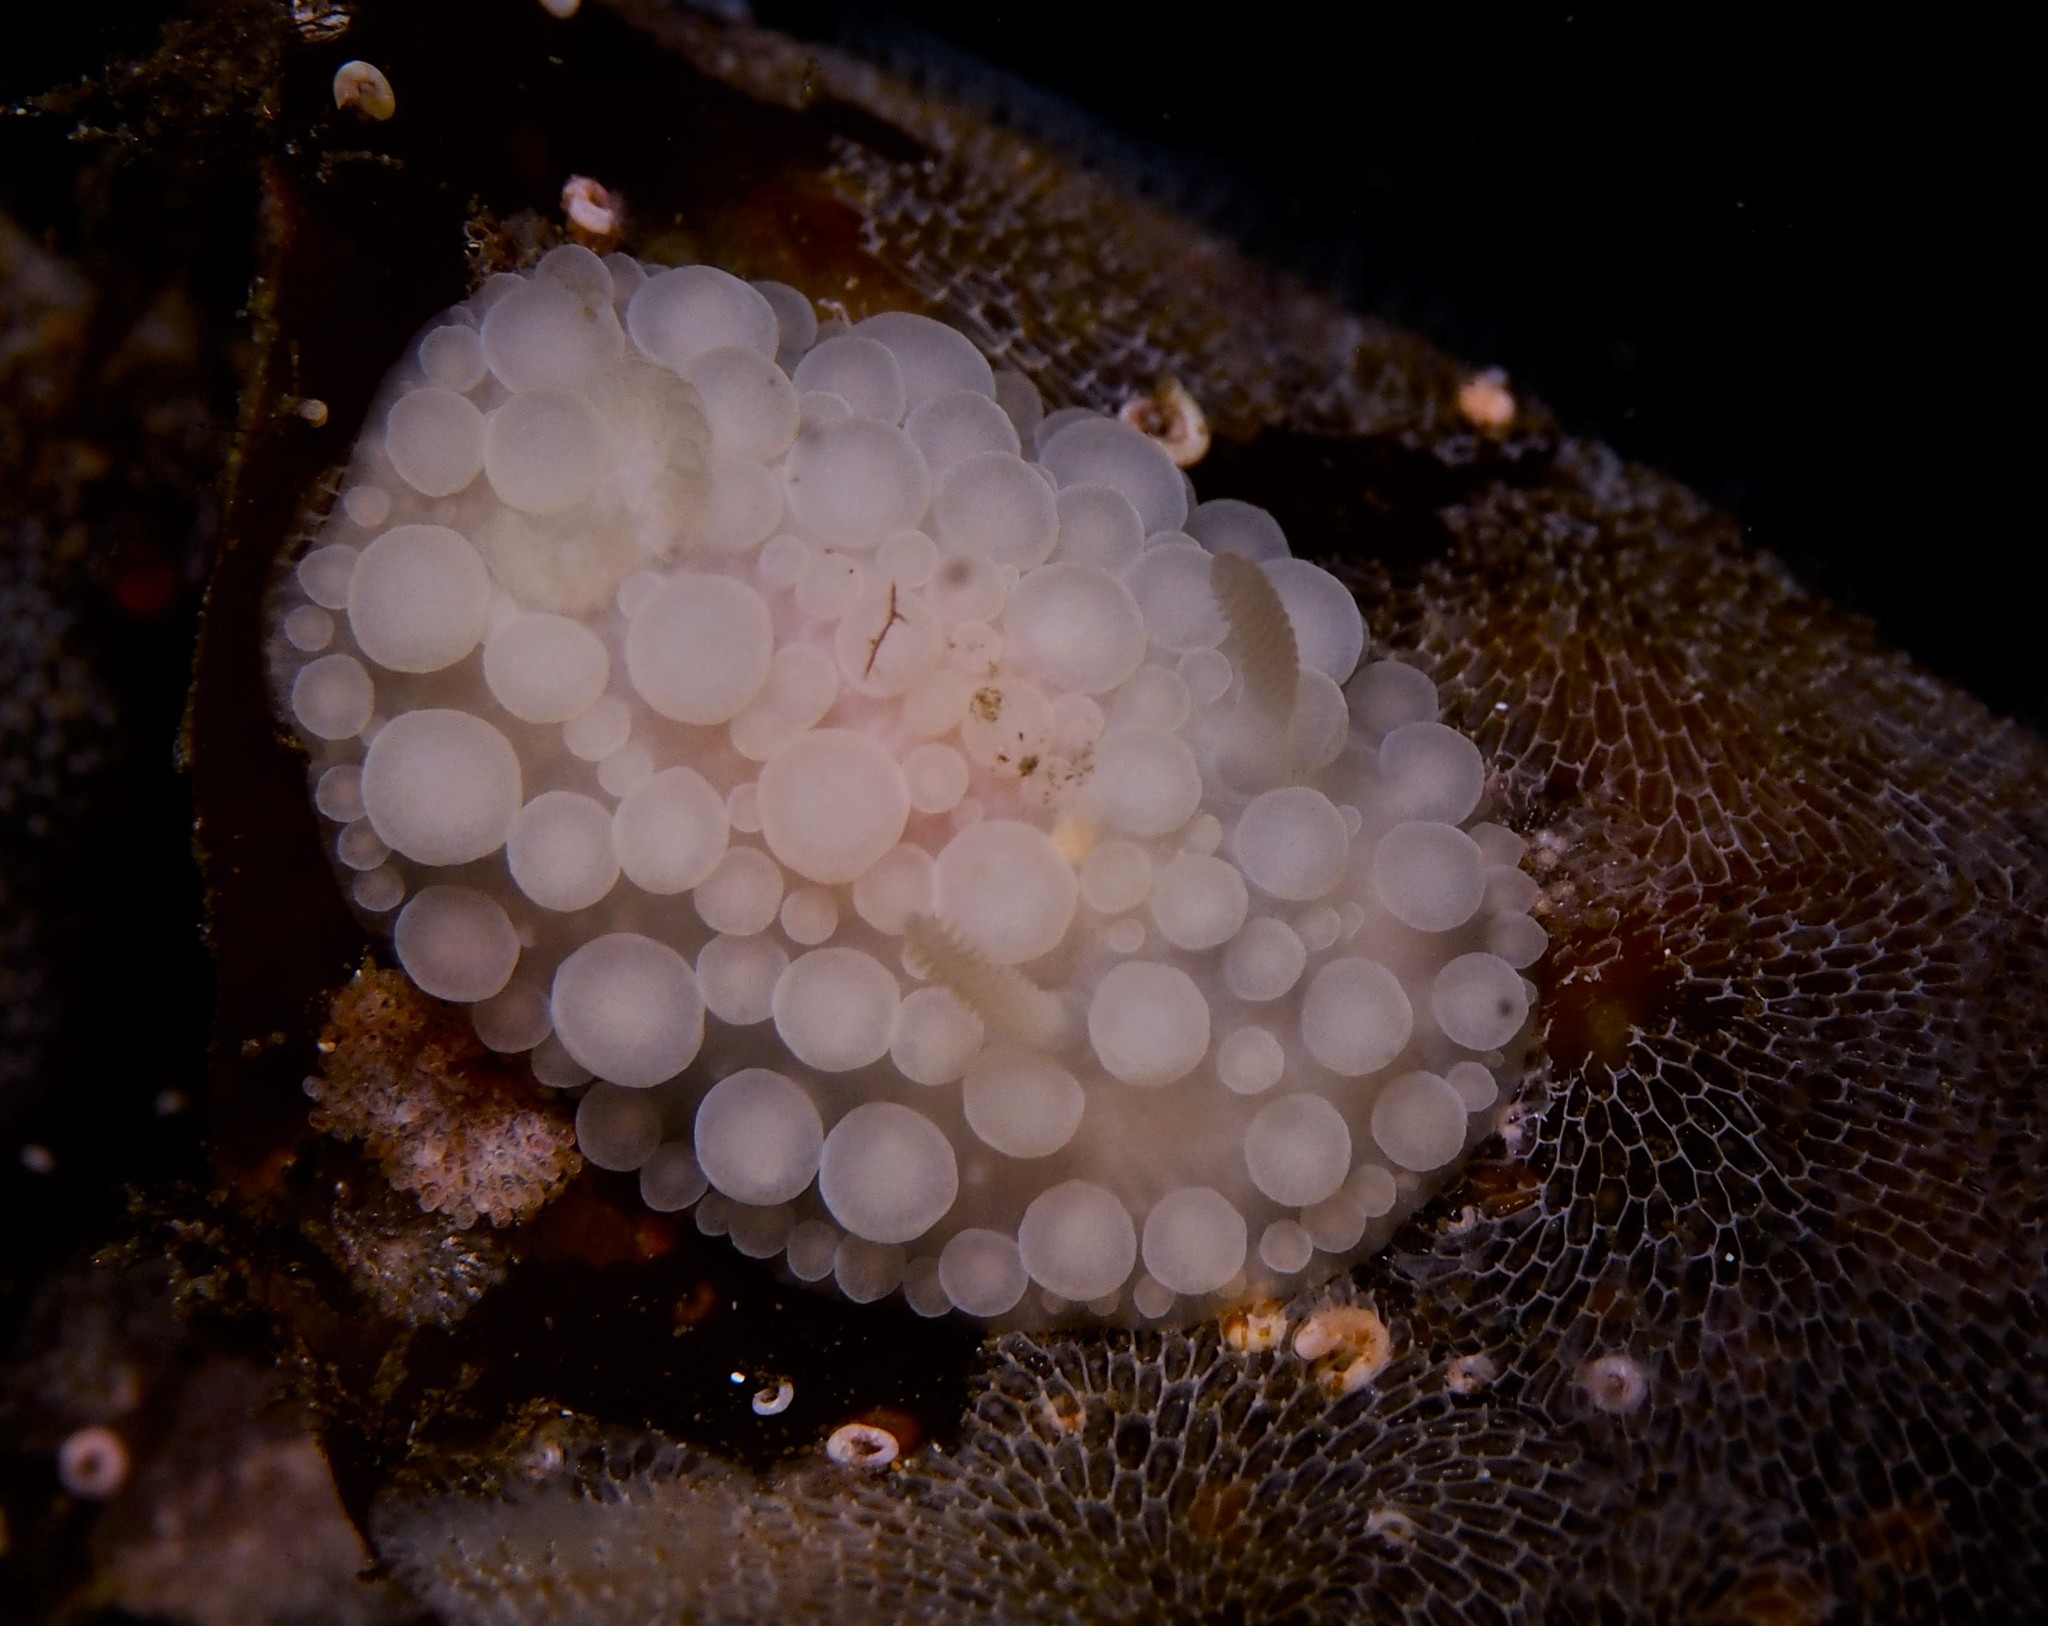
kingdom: Animalia
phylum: Mollusca
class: Gastropoda
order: Nudibranchia
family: Onchidorididae
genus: Adalaria
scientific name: Adalaria loveni
